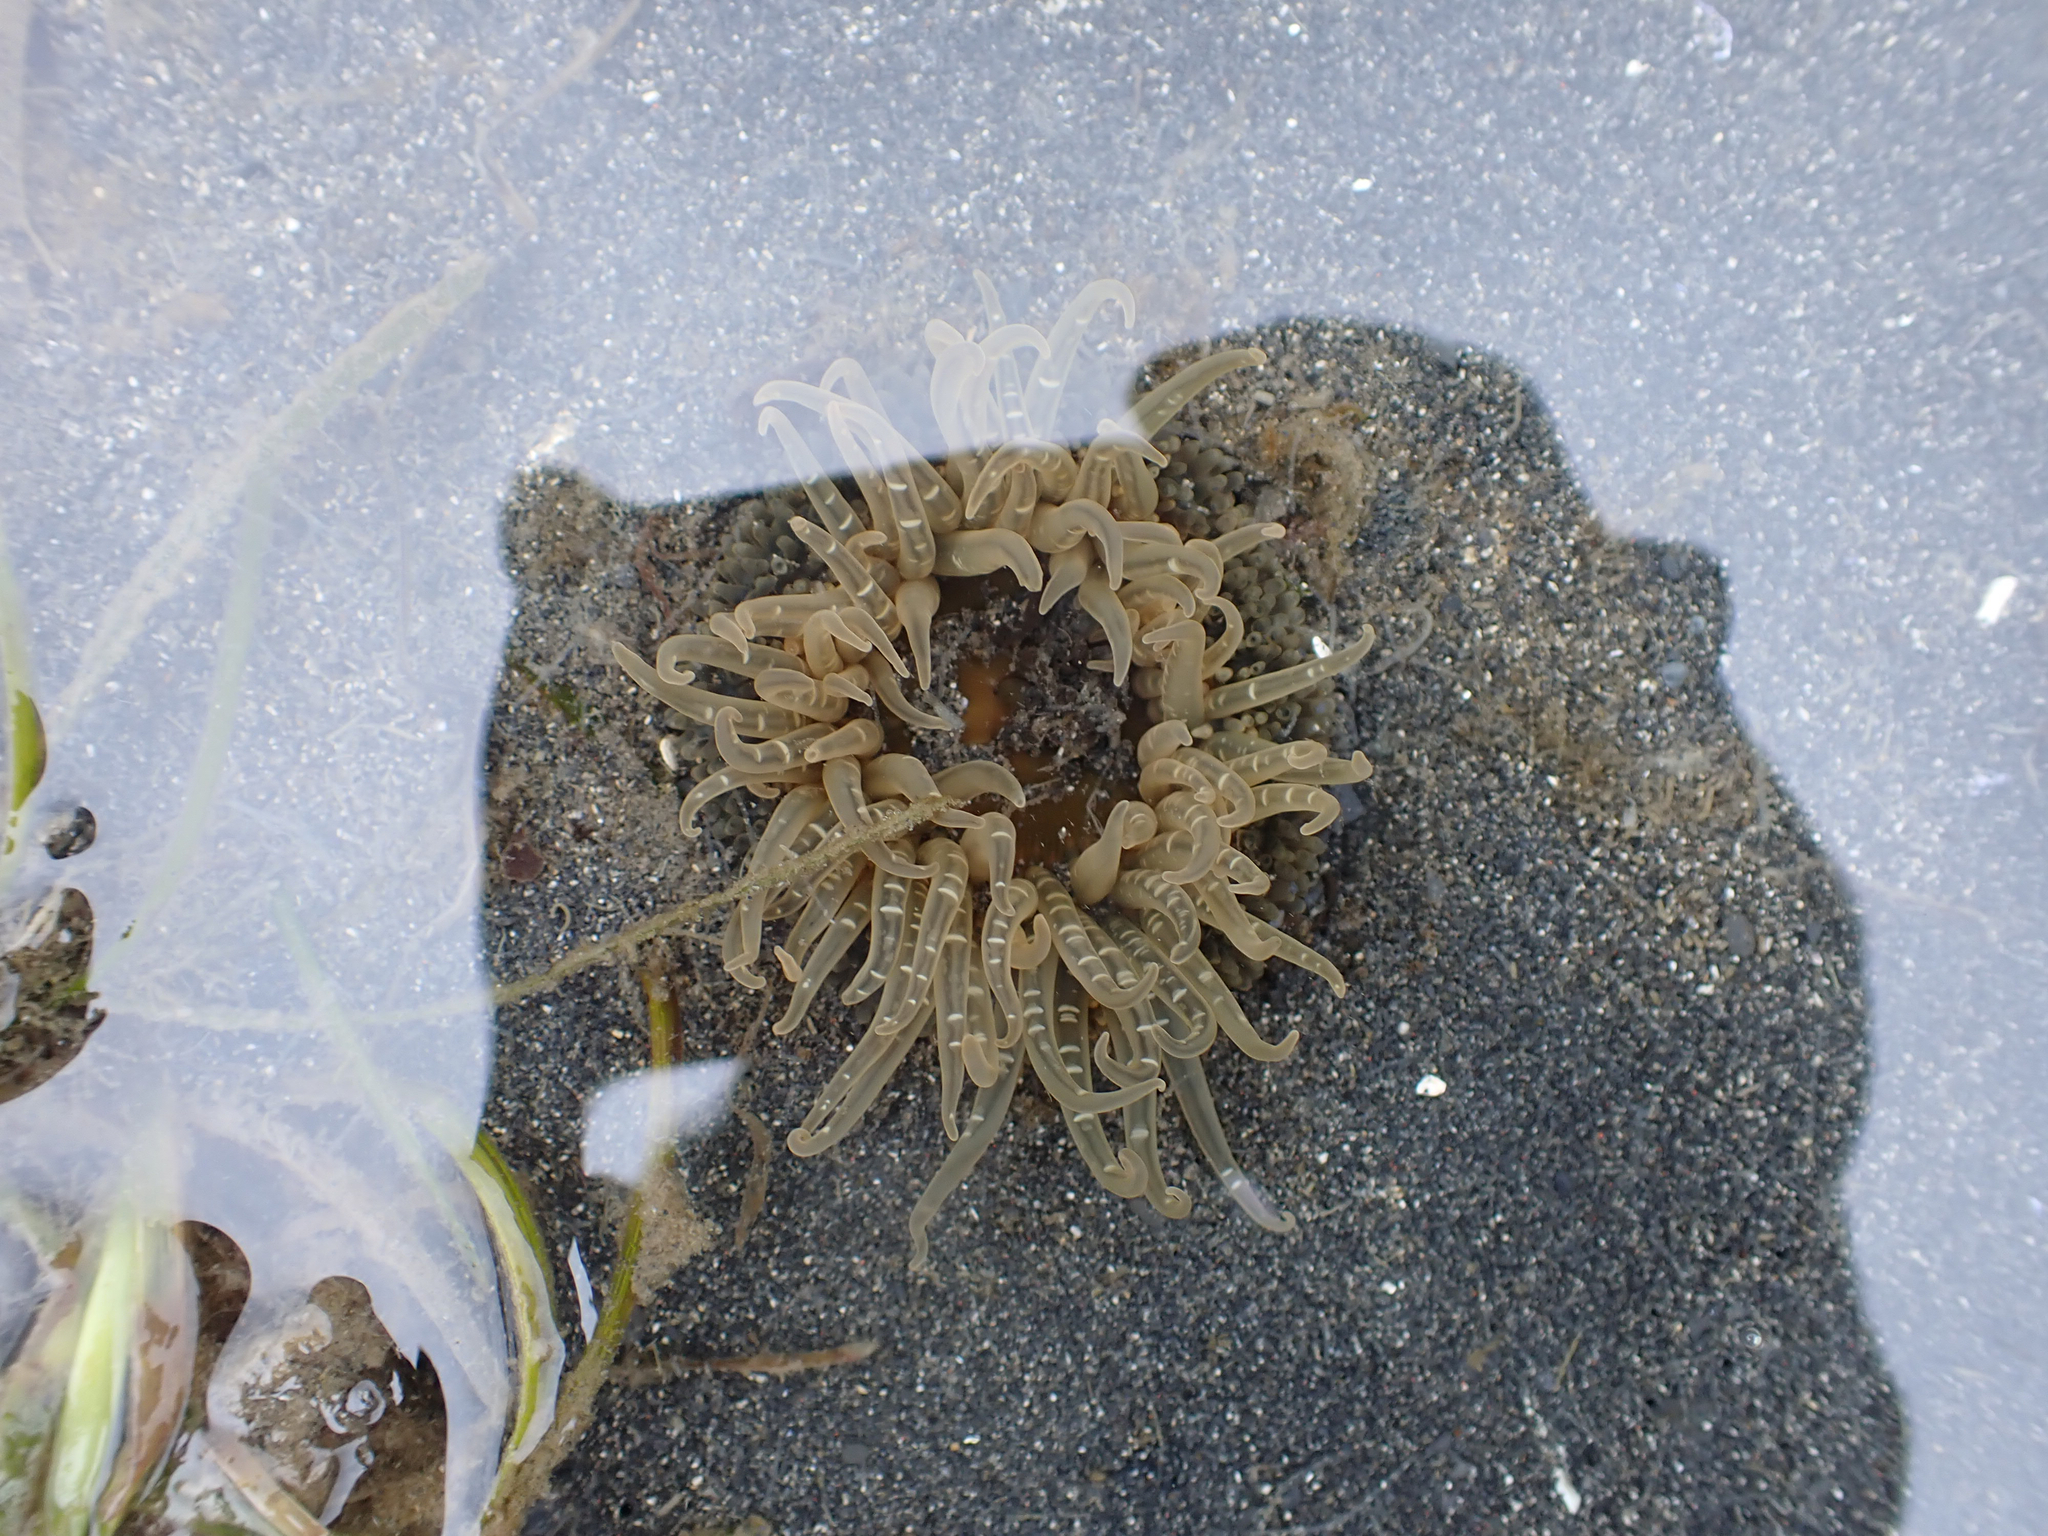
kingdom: Animalia
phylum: Cnidaria
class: Anthozoa
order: Actiniaria
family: Actiniidae
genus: Anthopleura
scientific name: Anthopleura artemisia
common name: Buried sea anemone
